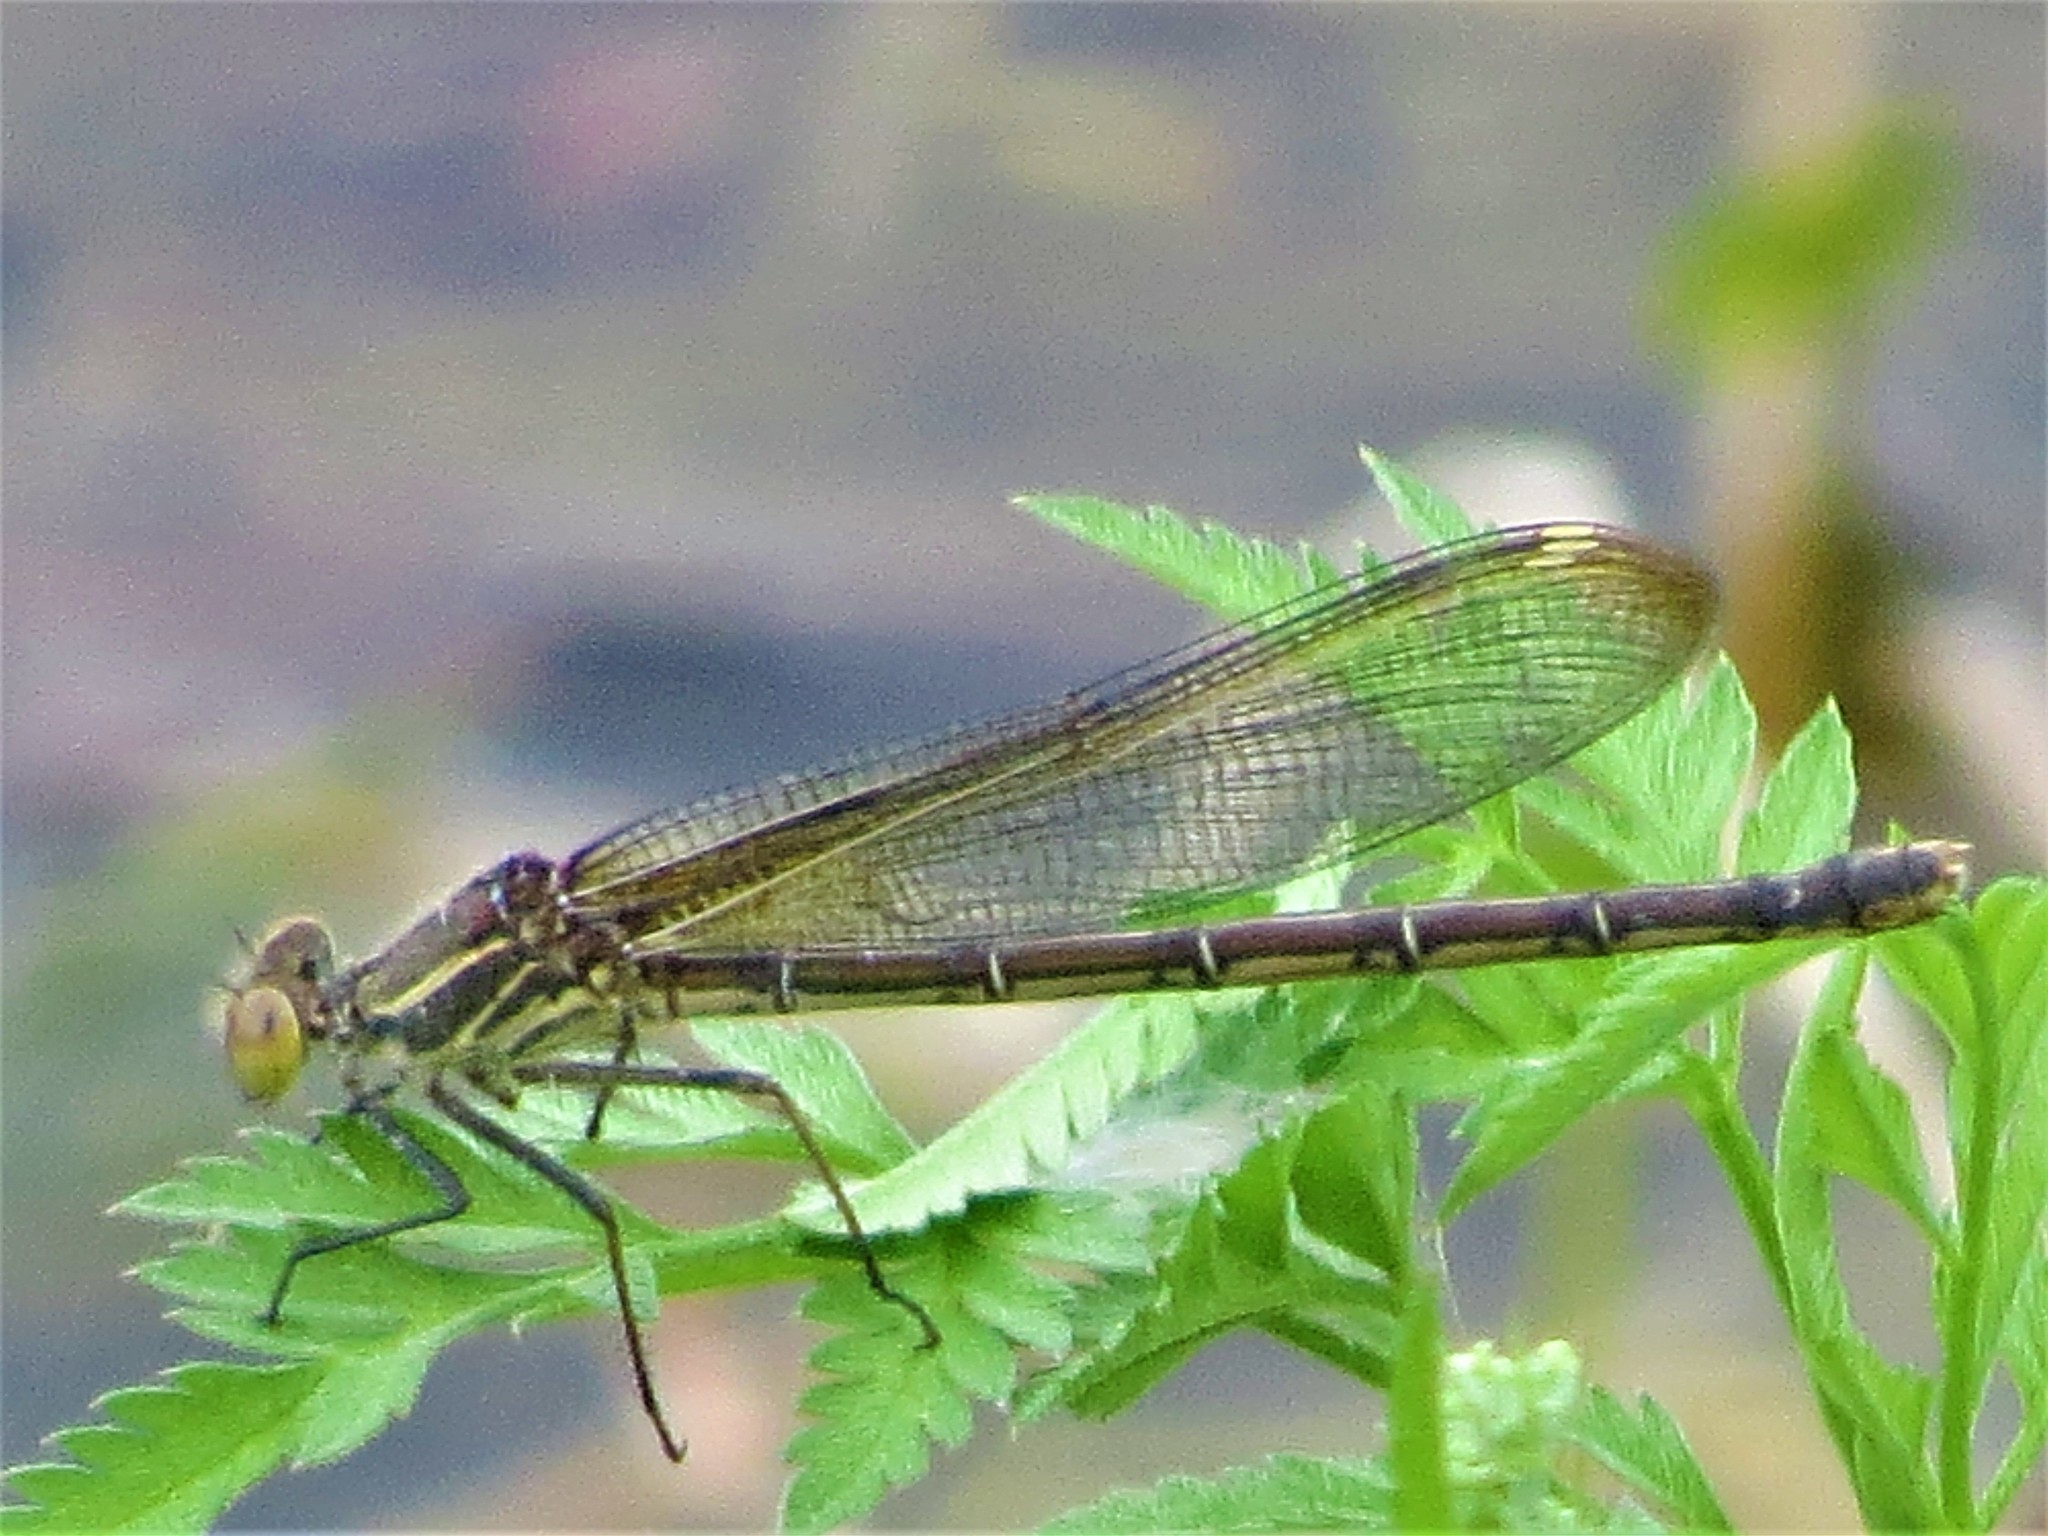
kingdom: Animalia
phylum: Arthropoda
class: Insecta
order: Odonata
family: Calopterygidae
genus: Hetaerina
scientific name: Hetaerina americana
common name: American rubyspot
